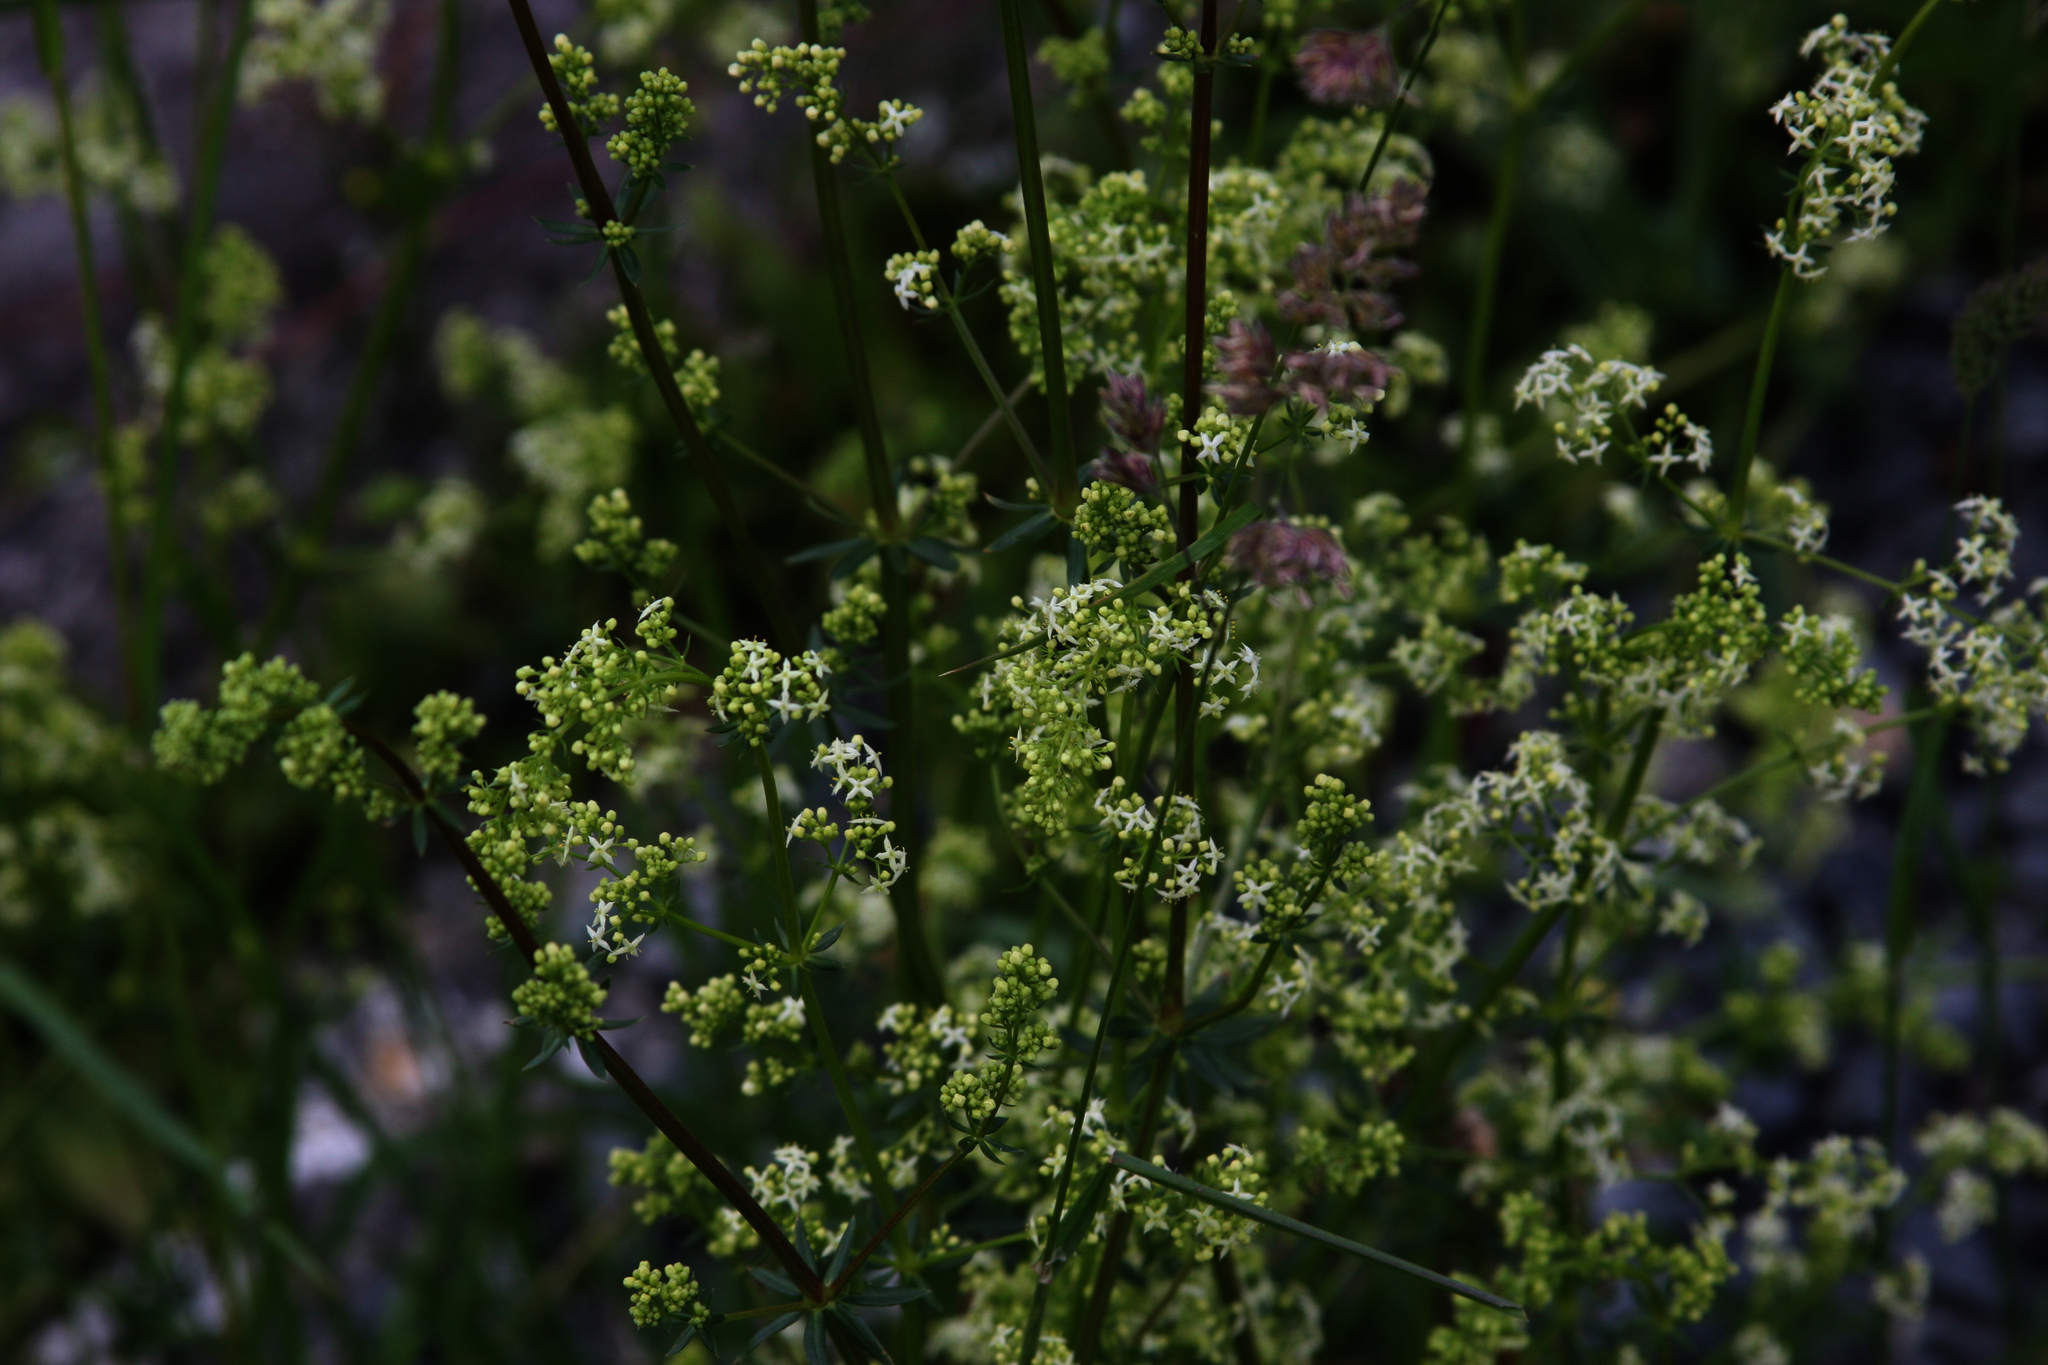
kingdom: Plantae
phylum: Tracheophyta
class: Magnoliopsida
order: Gentianales
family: Rubiaceae
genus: Galium
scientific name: Galium mollugo
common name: Hedge bedstraw
